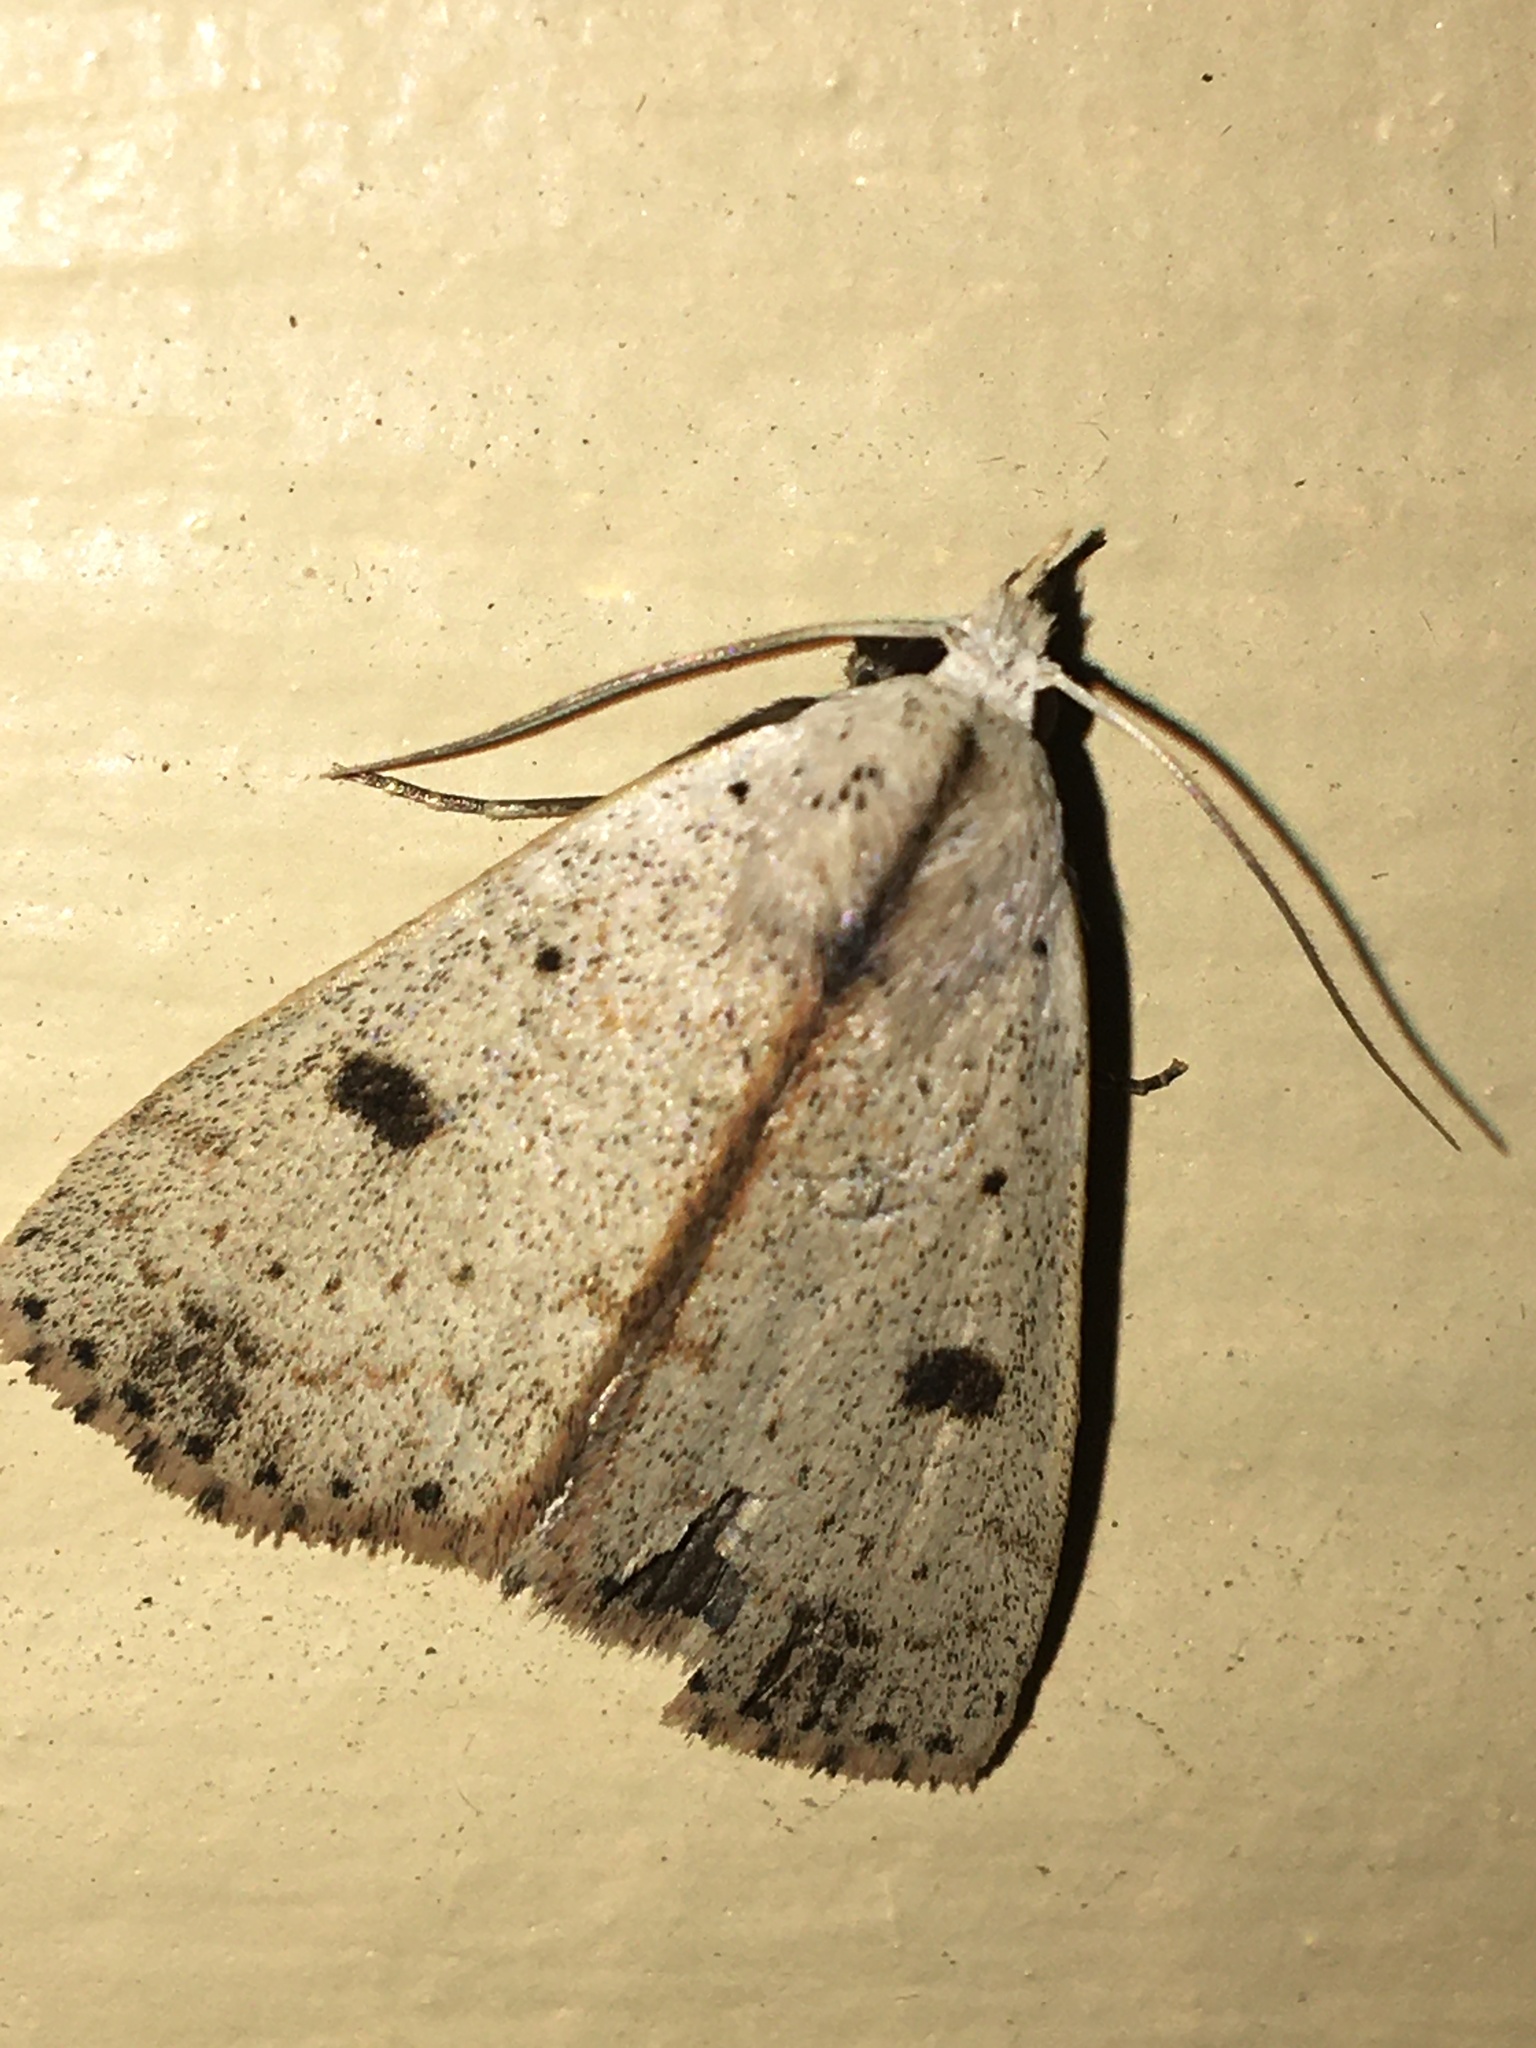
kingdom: Animalia
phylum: Arthropoda
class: Insecta
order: Lepidoptera
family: Erebidae
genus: Scolecocampa
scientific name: Scolecocampa liburna
